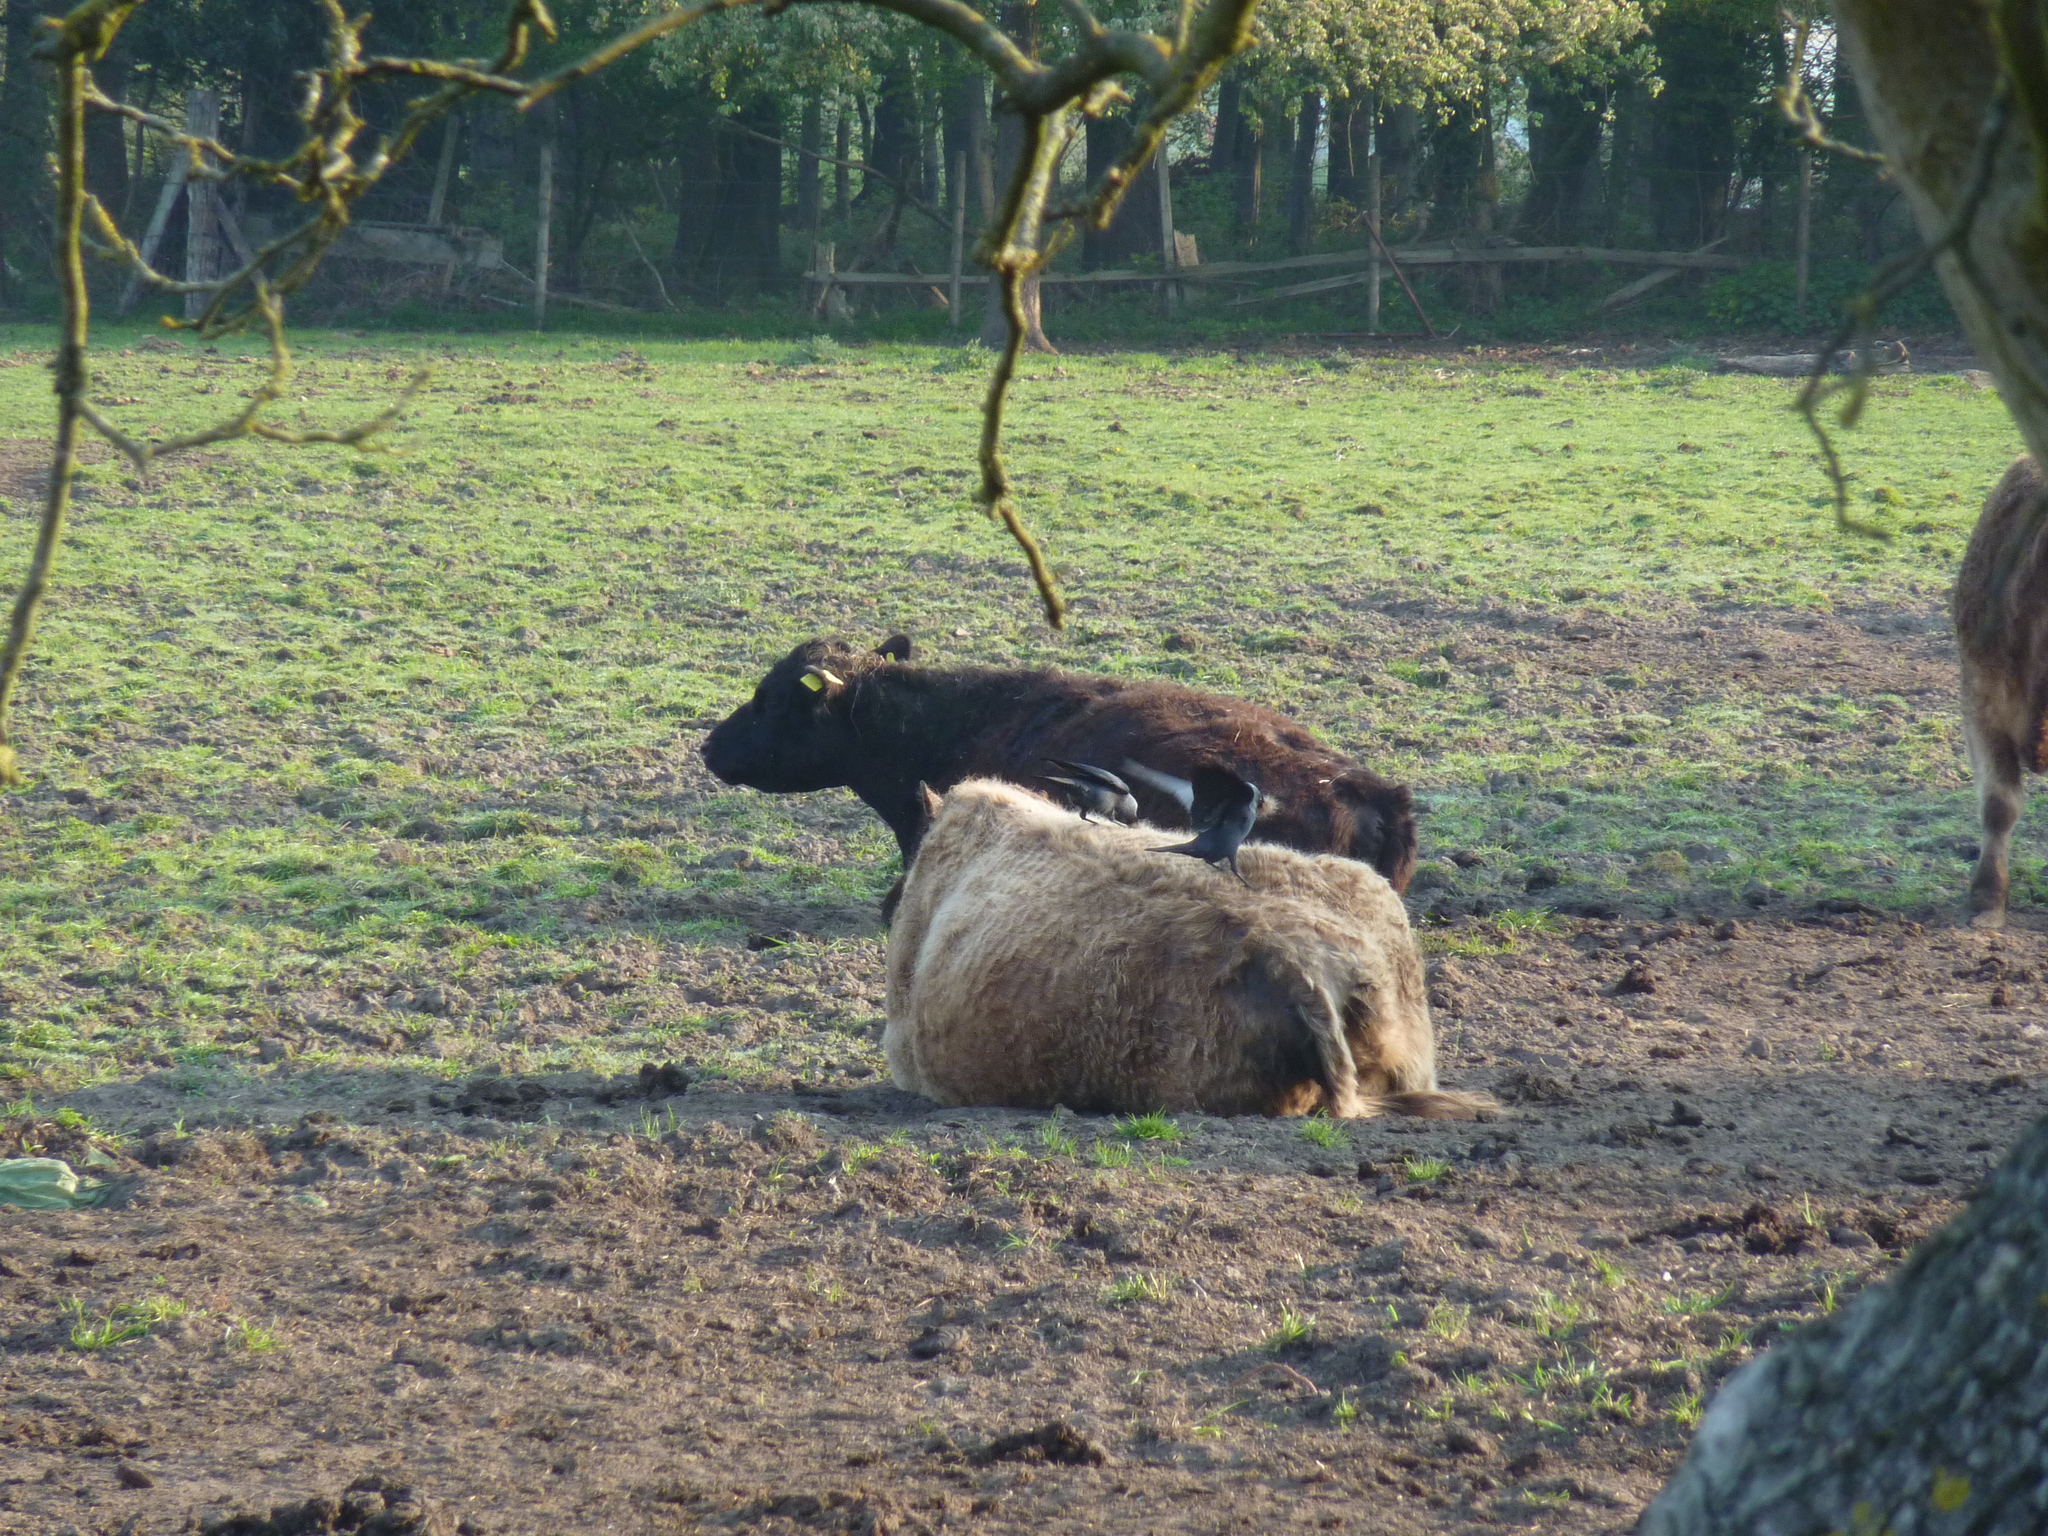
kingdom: Animalia
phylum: Chordata
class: Aves
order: Passeriformes
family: Corvidae
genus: Coloeus
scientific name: Coloeus monedula
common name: Western jackdaw
